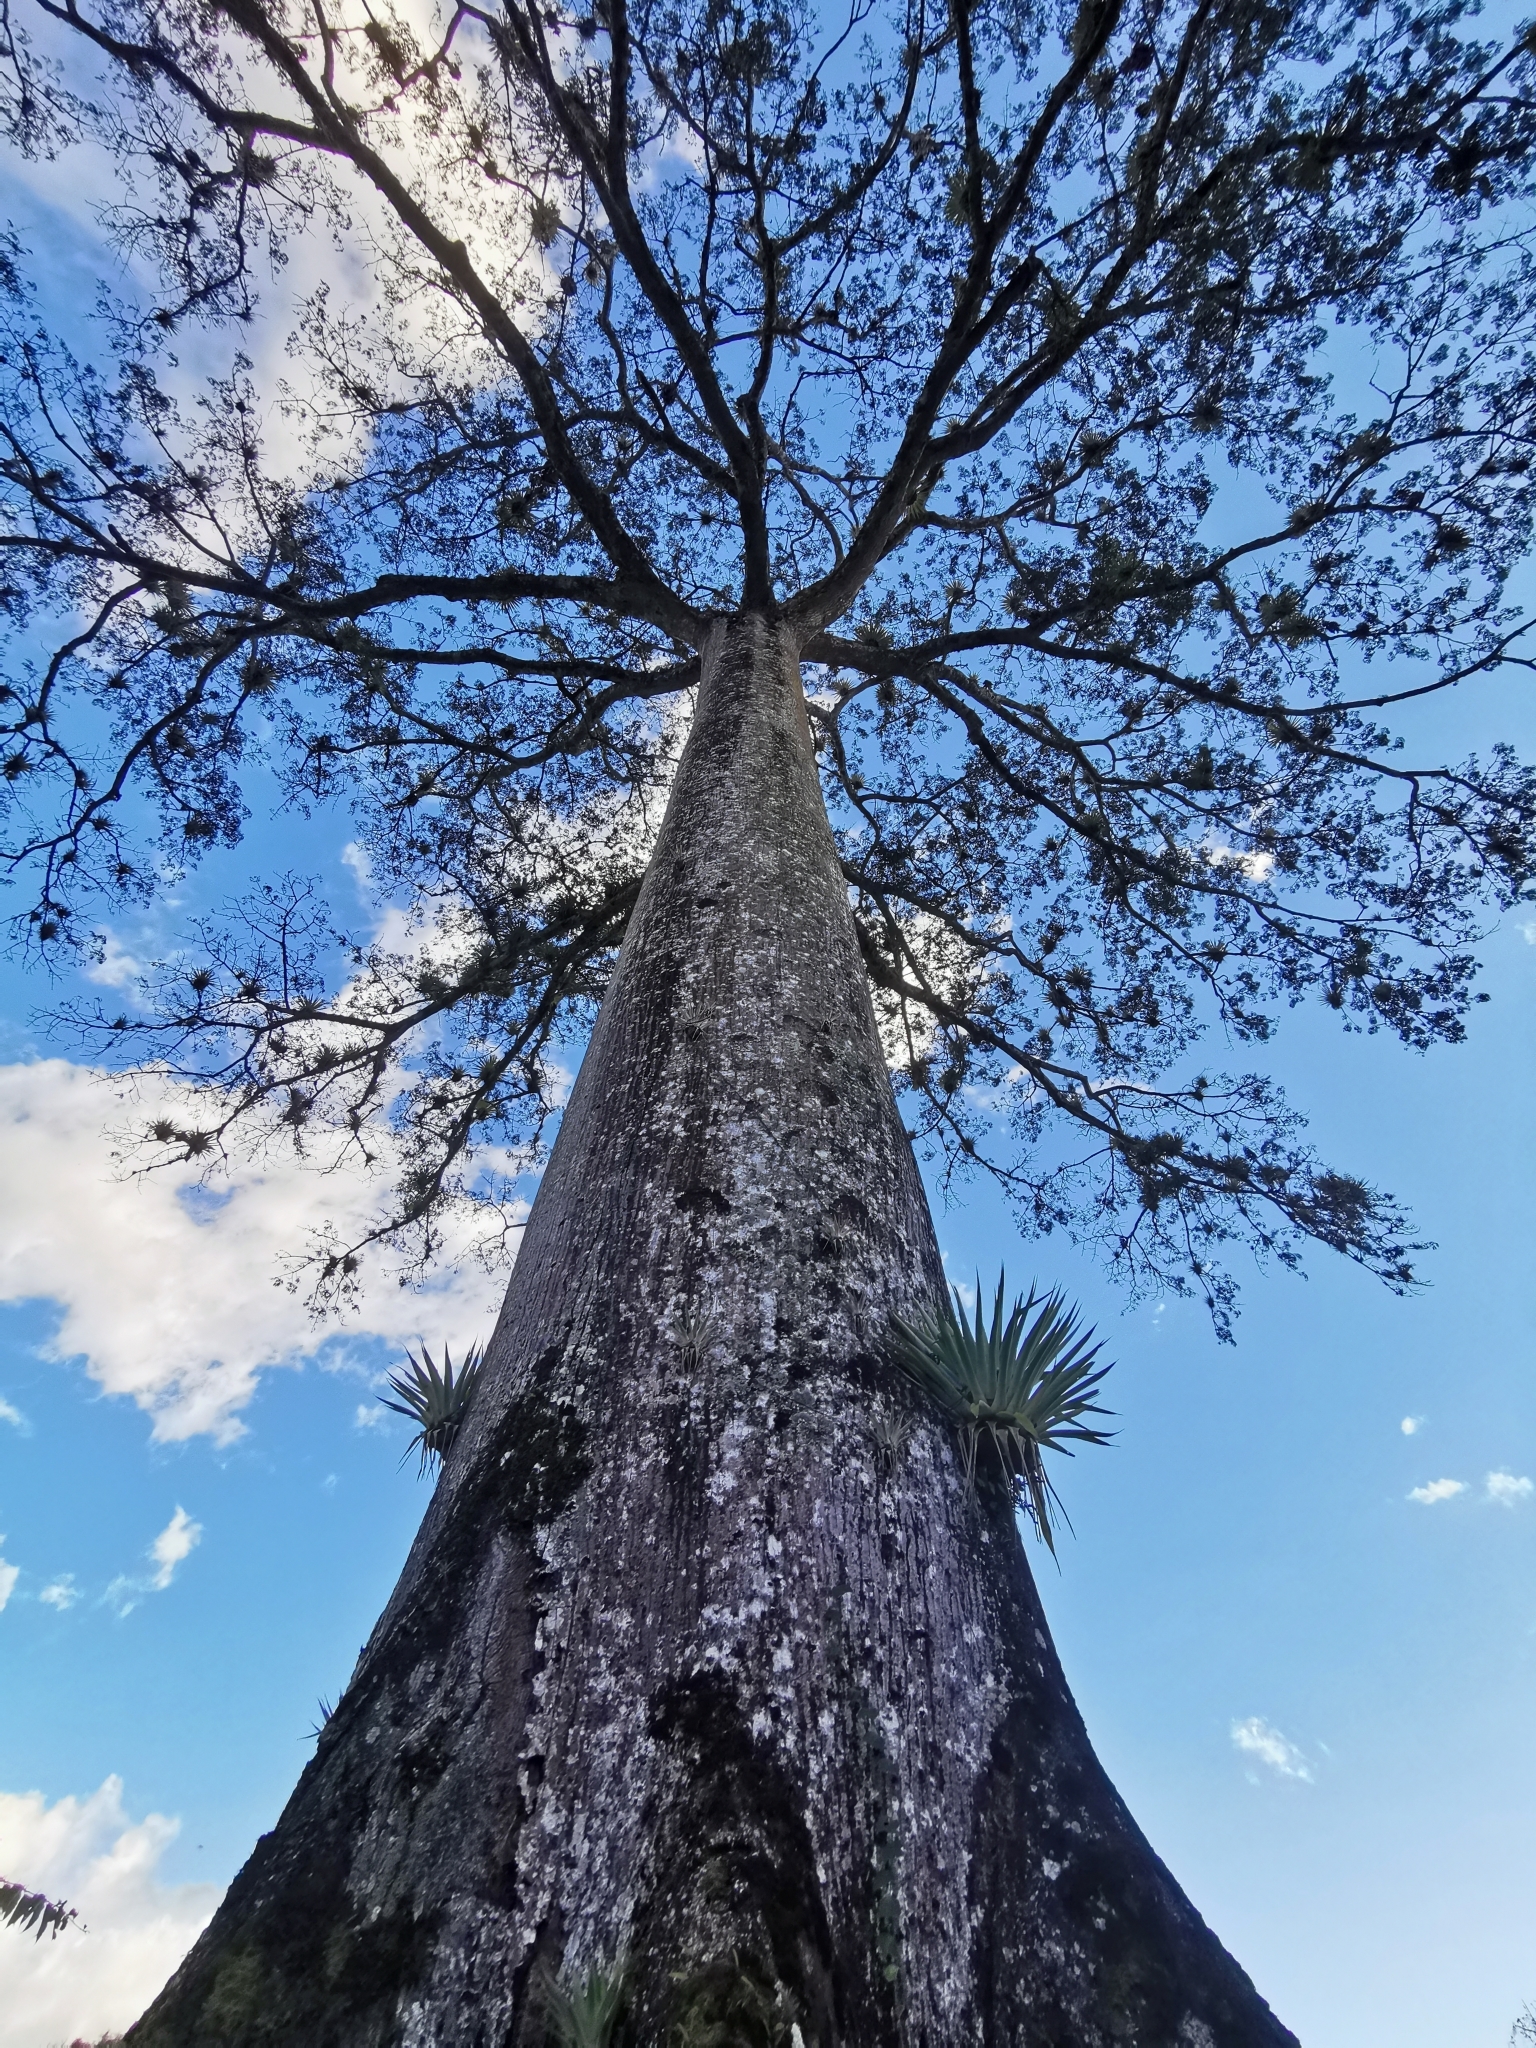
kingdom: Plantae
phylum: Tracheophyta
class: Magnoliopsida
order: Malvales
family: Malvaceae
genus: Ceiba
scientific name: Ceiba pentandra
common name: Kapok
